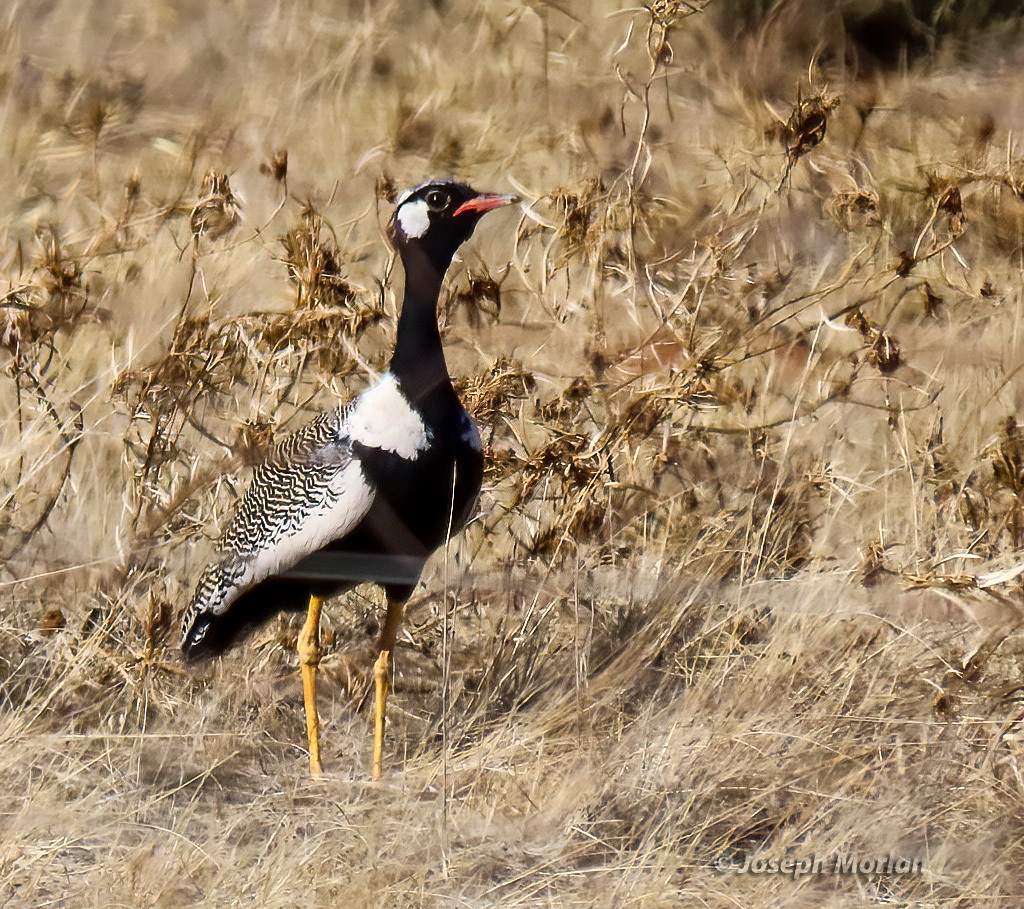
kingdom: Animalia
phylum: Chordata
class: Aves
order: Otidiformes
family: Otididae
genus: Afrotis
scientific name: Afrotis afraoides
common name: Northern black korhaan
